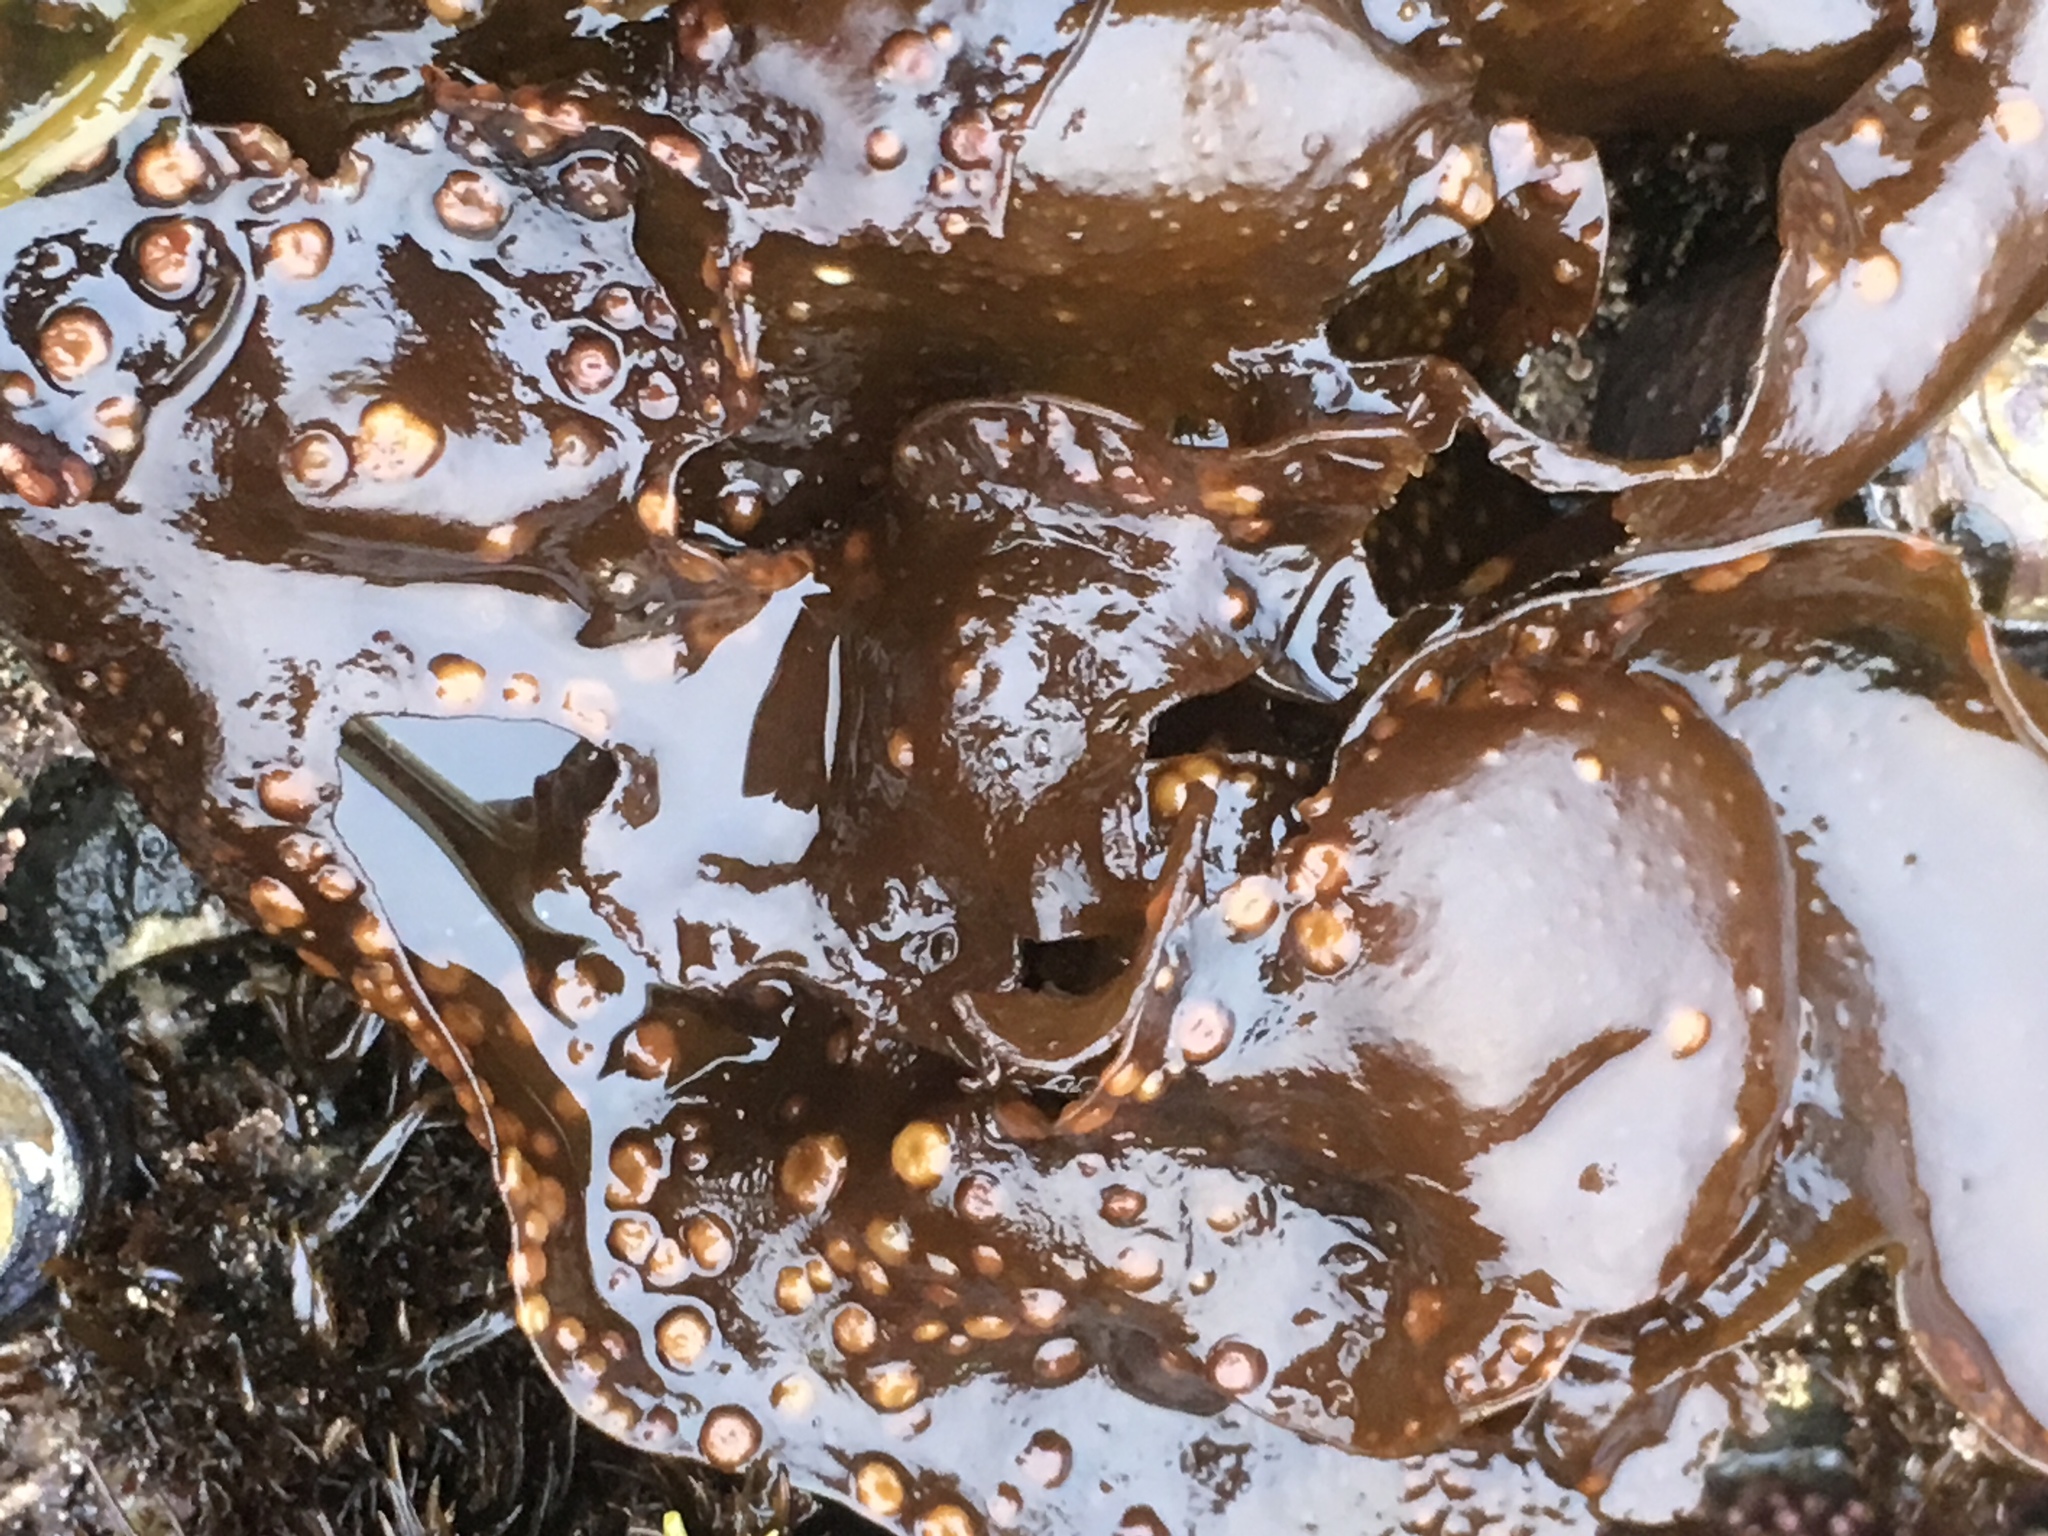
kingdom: Plantae
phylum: Rhodophyta
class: Florideophyceae
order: Gigartinales
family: Gigartinaceae
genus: Chondracanthus
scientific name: Chondracanthus exasperatus
